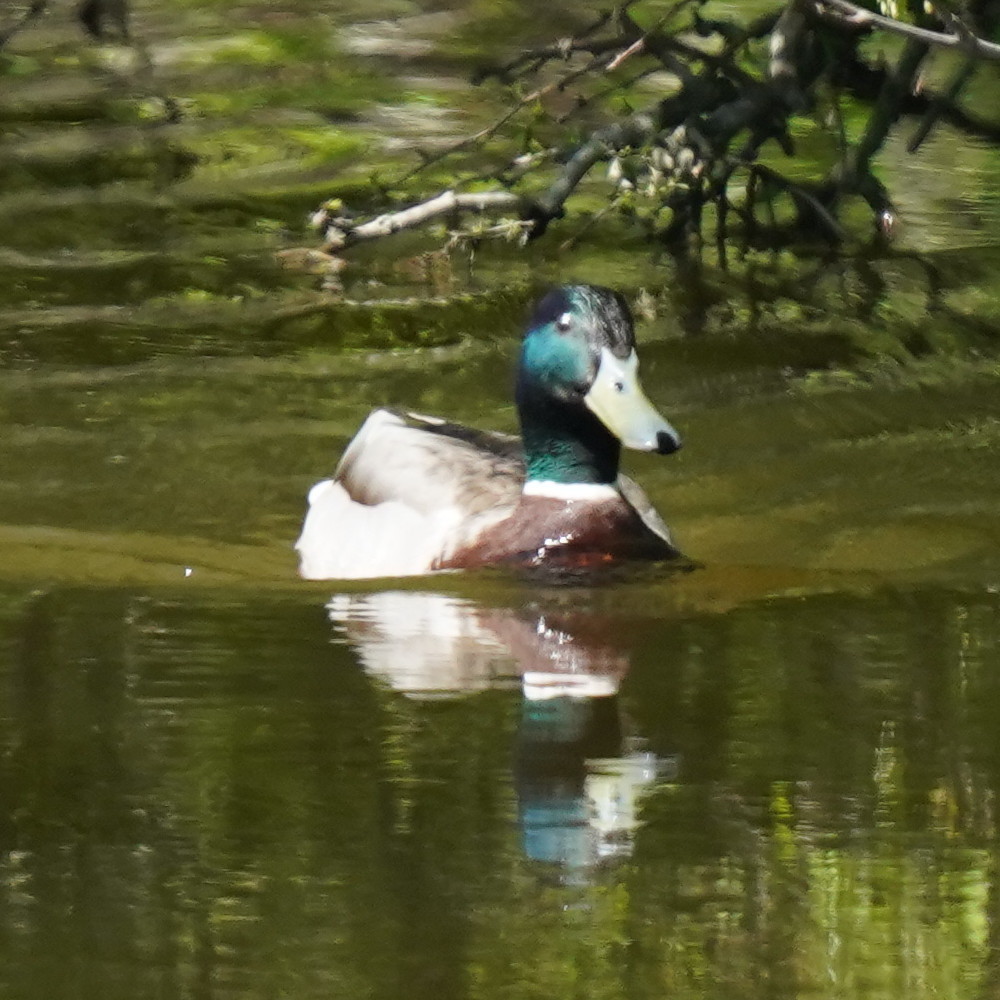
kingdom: Animalia
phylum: Chordata
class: Aves
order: Anseriformes
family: Anatidae
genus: Anas
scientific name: Anas platyrhynchos
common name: Mallard
